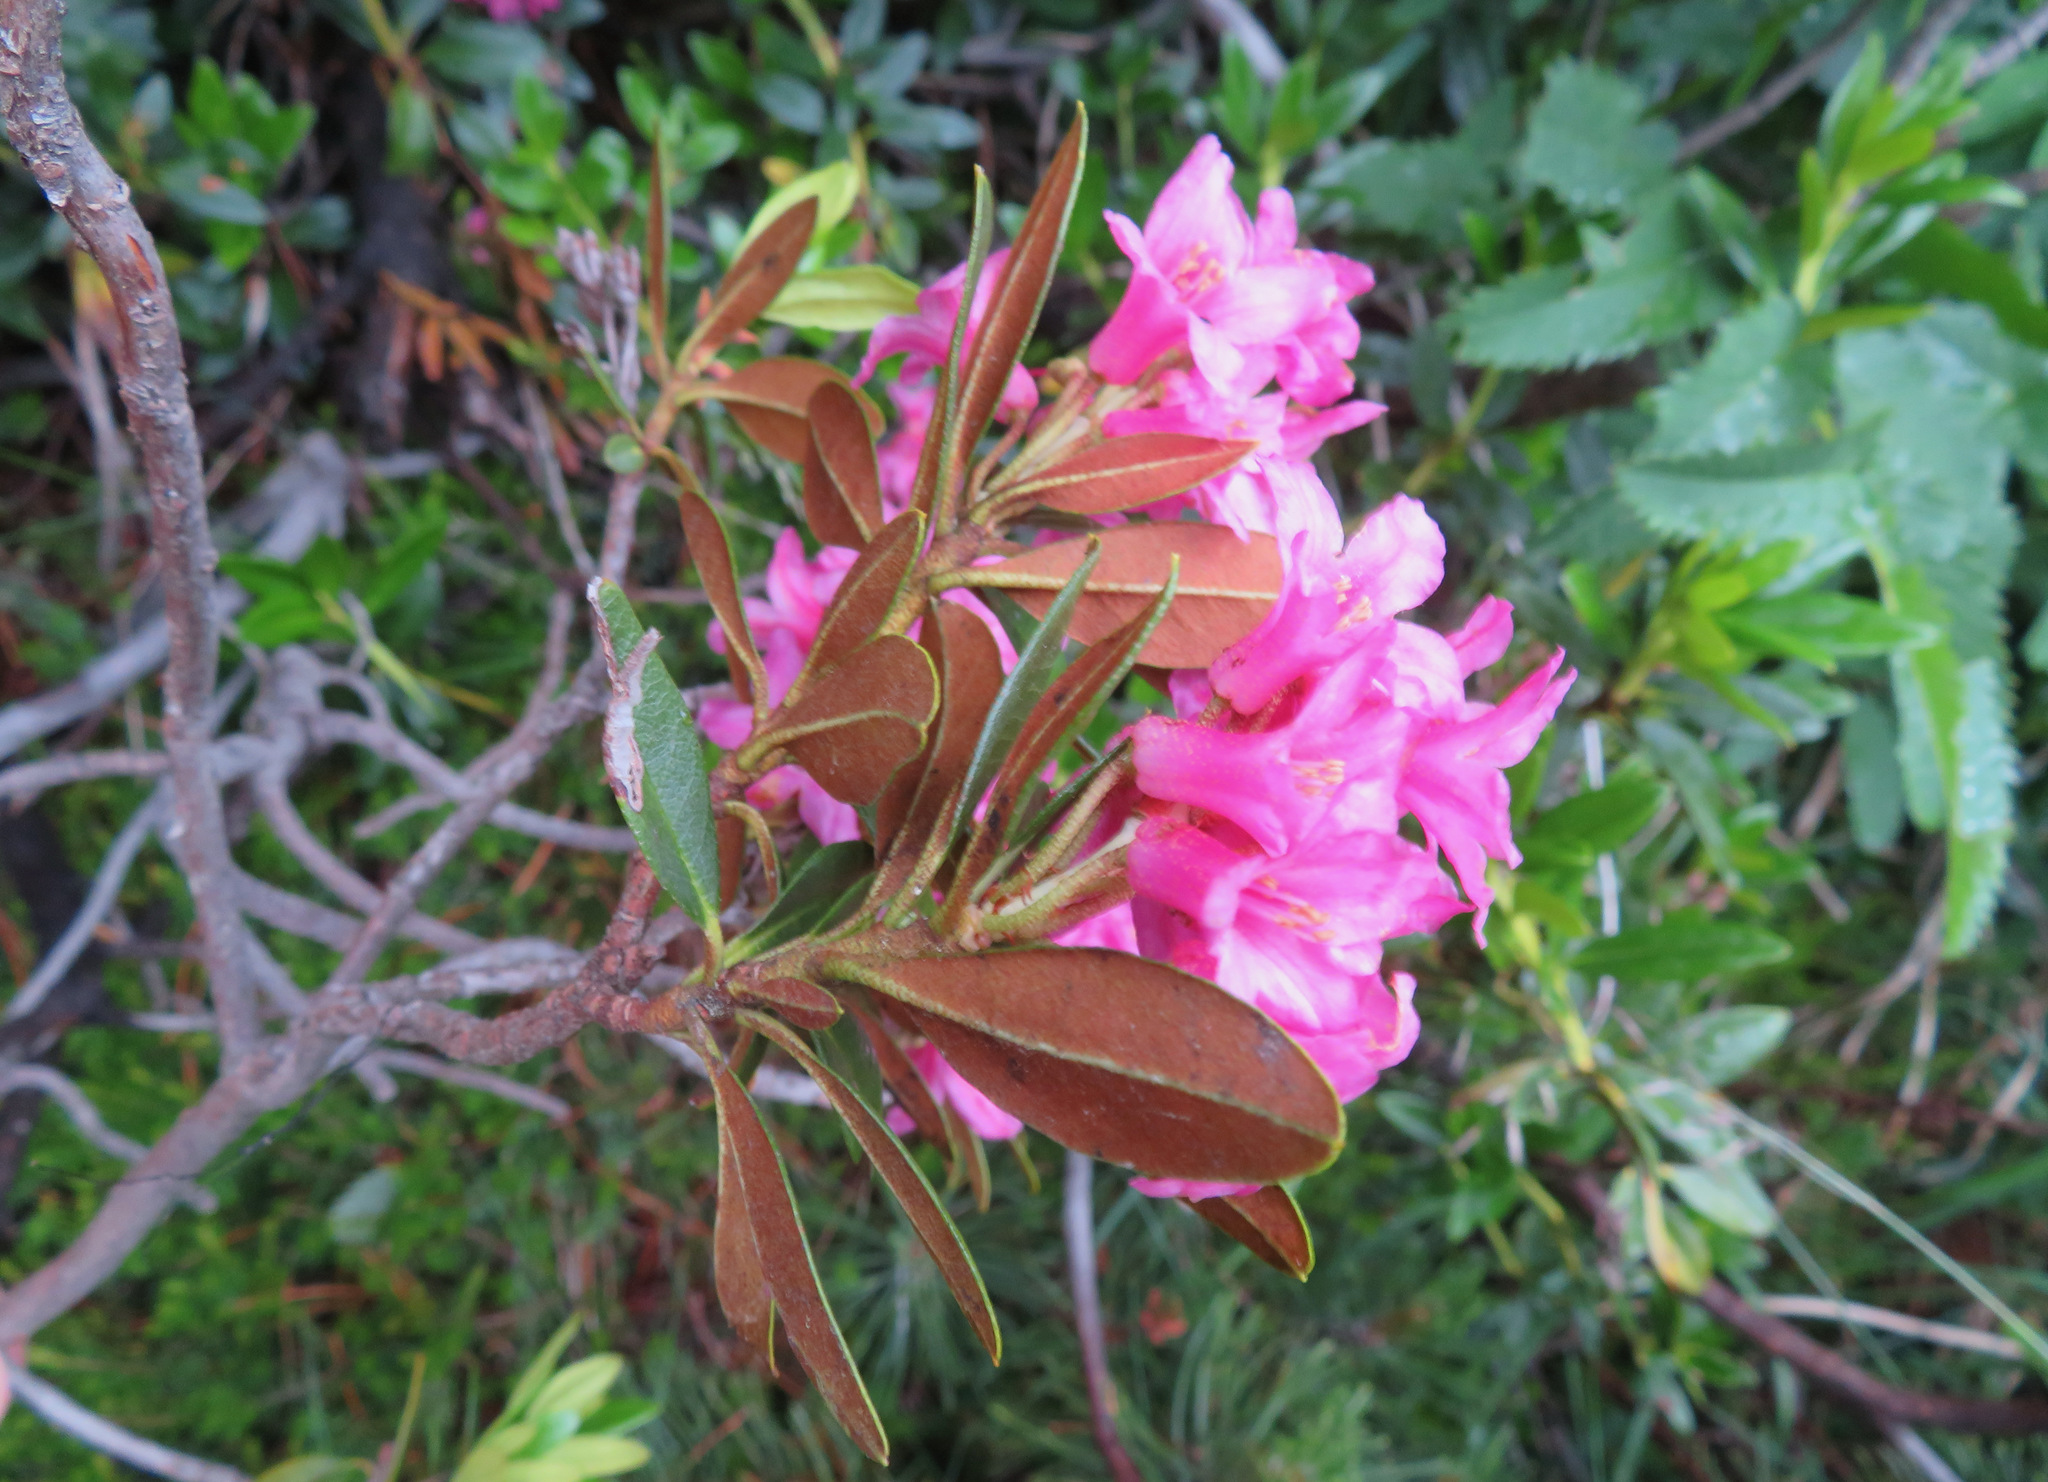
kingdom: Plantae
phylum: Tracheophyta
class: Magnoliopsida
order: Ericales
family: Ericaceae
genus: Rhododendron
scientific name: Rhododendron ferrugineum
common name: Alpenrose
